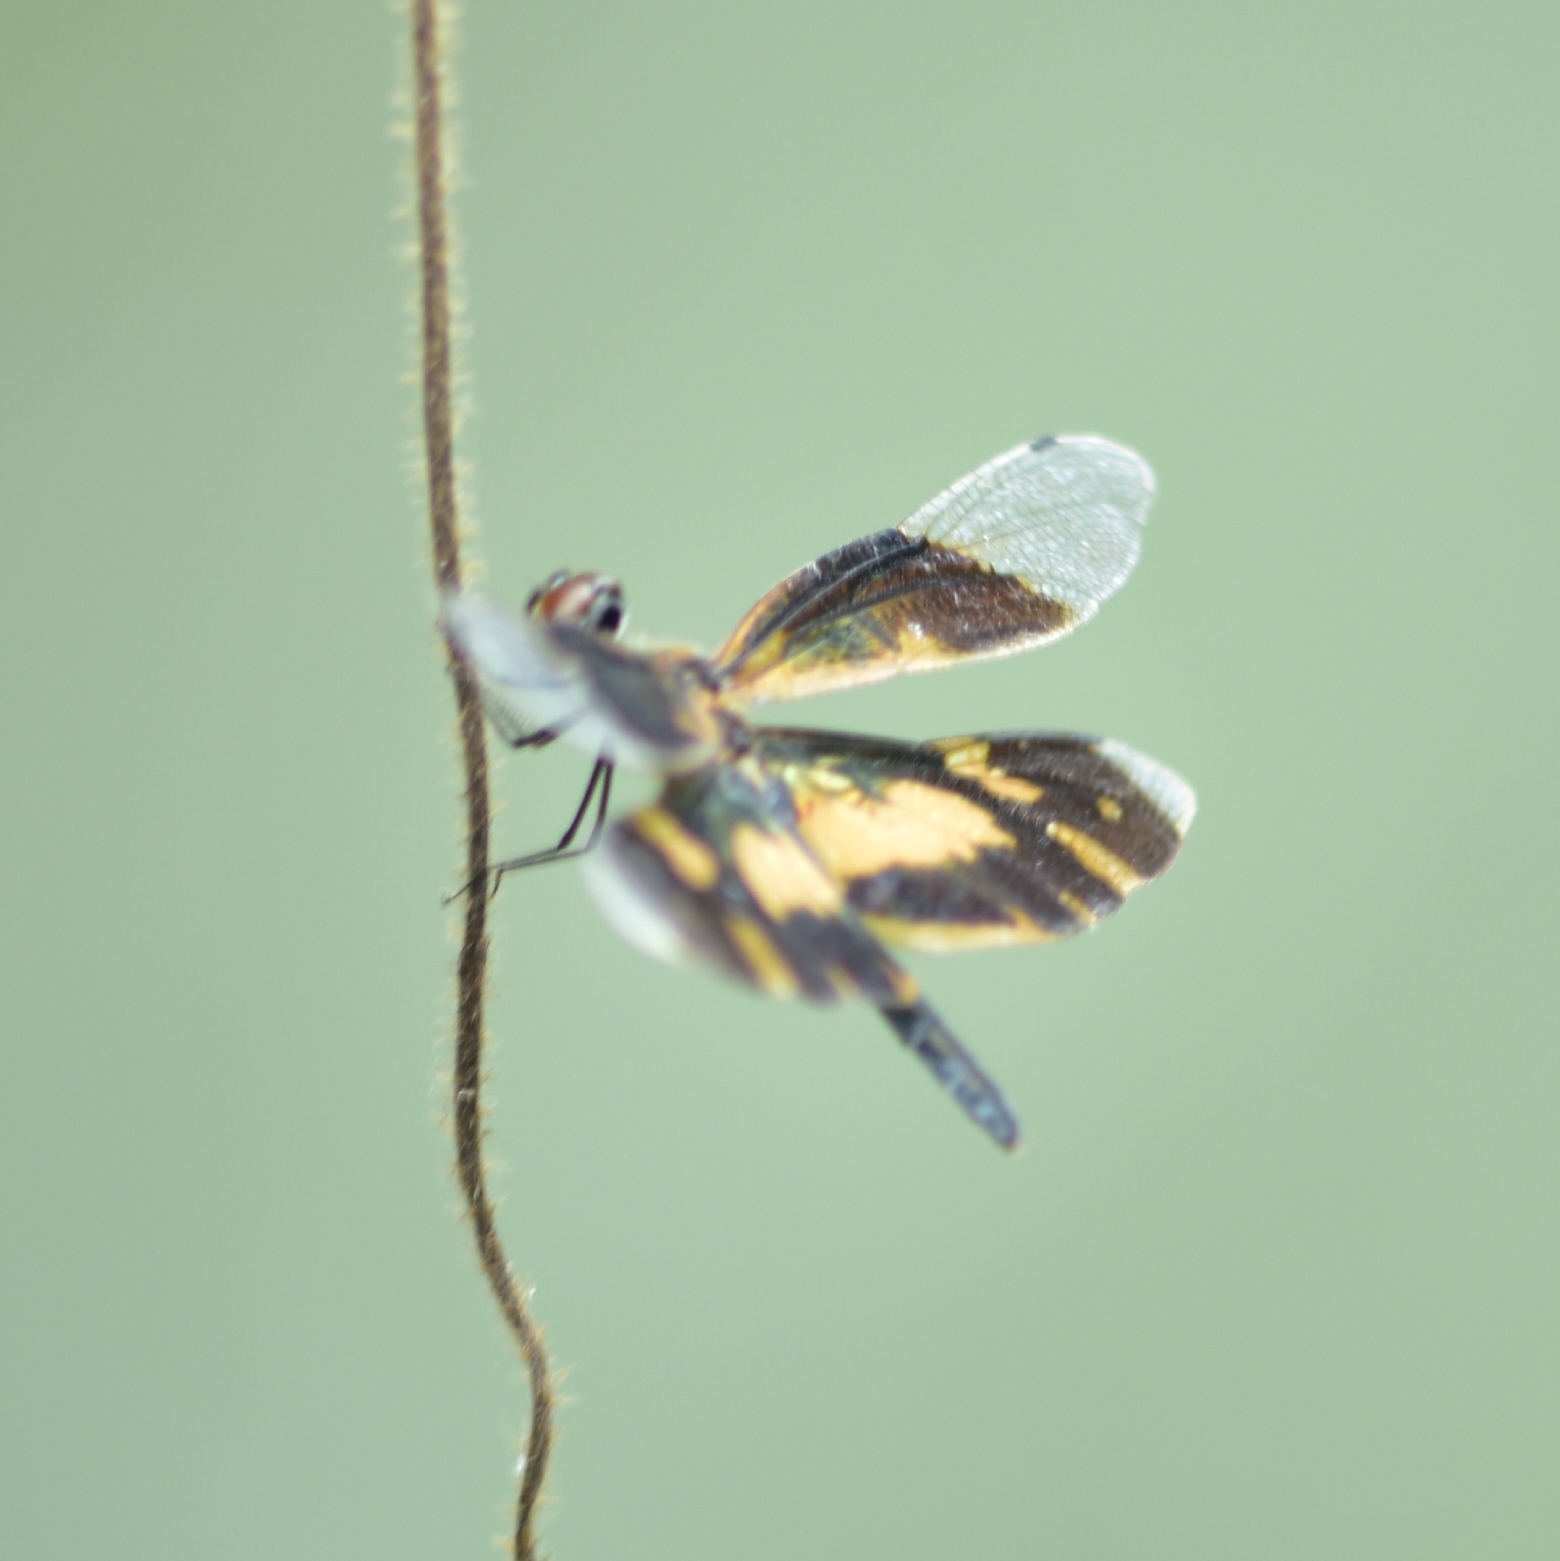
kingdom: Animalia
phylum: Arthropoda
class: Insecta
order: Odonata
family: Libellulidae
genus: Rhyothemis
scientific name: Rhyothemis variegata
